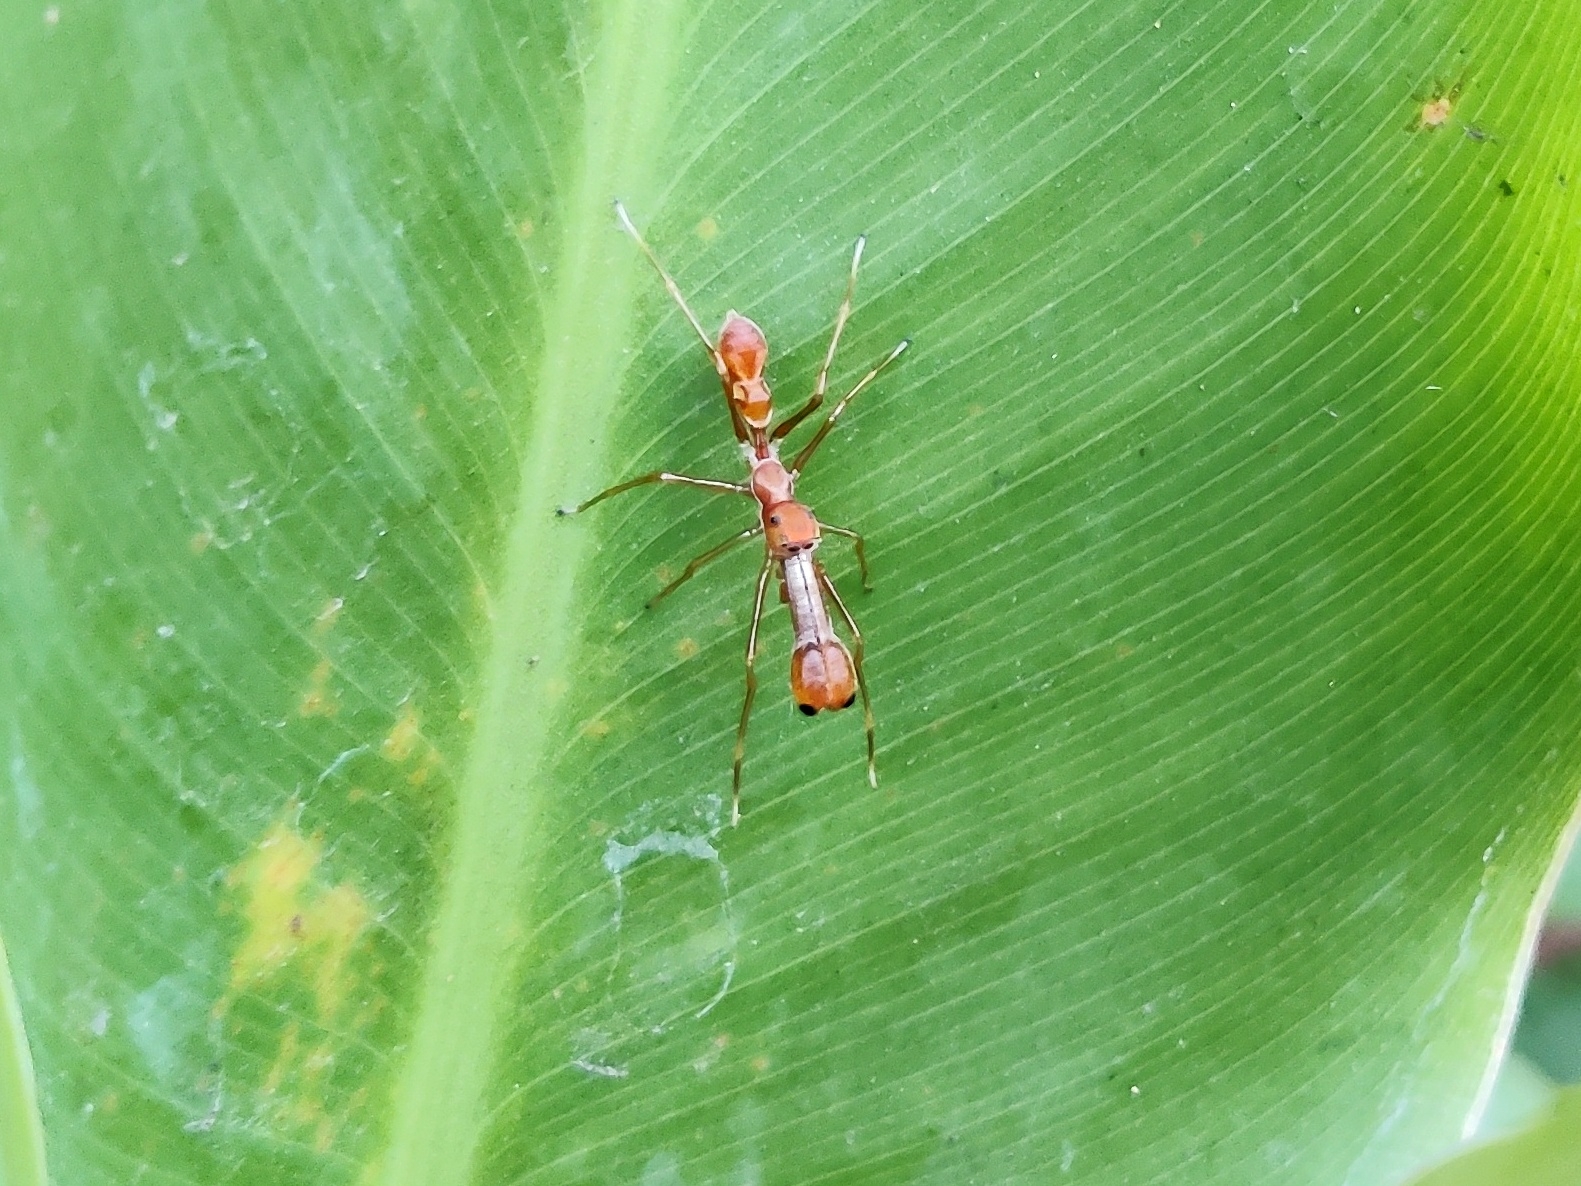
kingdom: Animalia
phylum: Arthropoda
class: Arachnida
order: Araneae
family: Salticidae
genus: Myrmaplata
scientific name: Myrmaplata plataleoides
